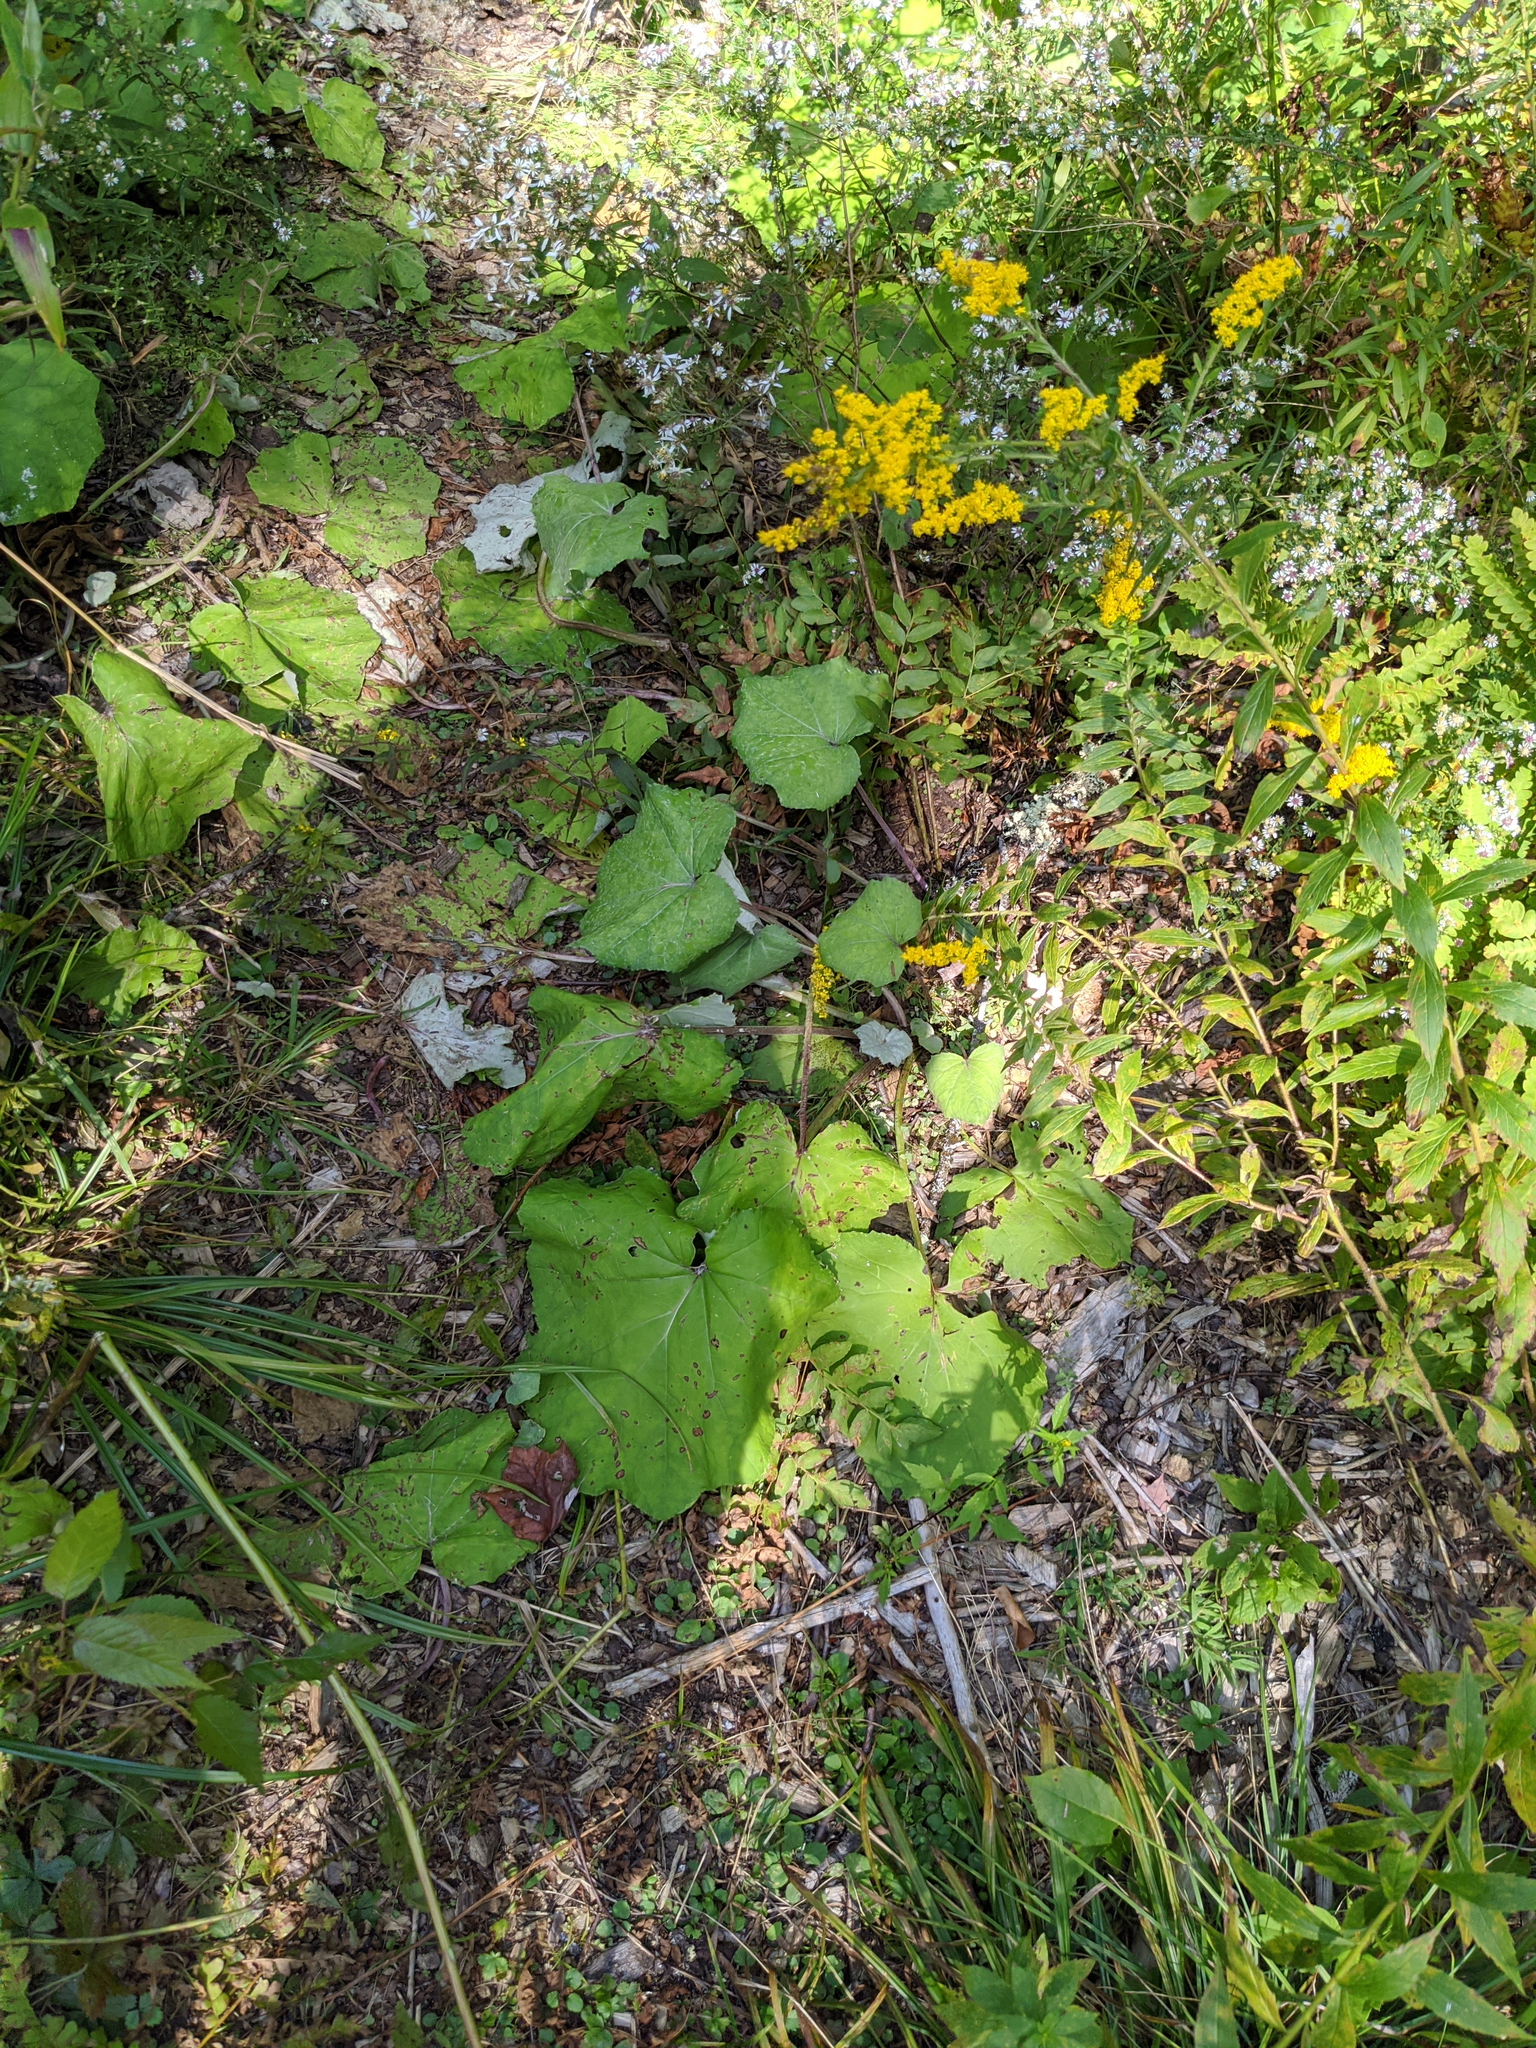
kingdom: Plantae
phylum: Tracheophyta
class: Magnoliopsida
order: Asterales
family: Asteraceae
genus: Tussilago
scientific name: Tussilago farfara
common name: Coltsfoot
